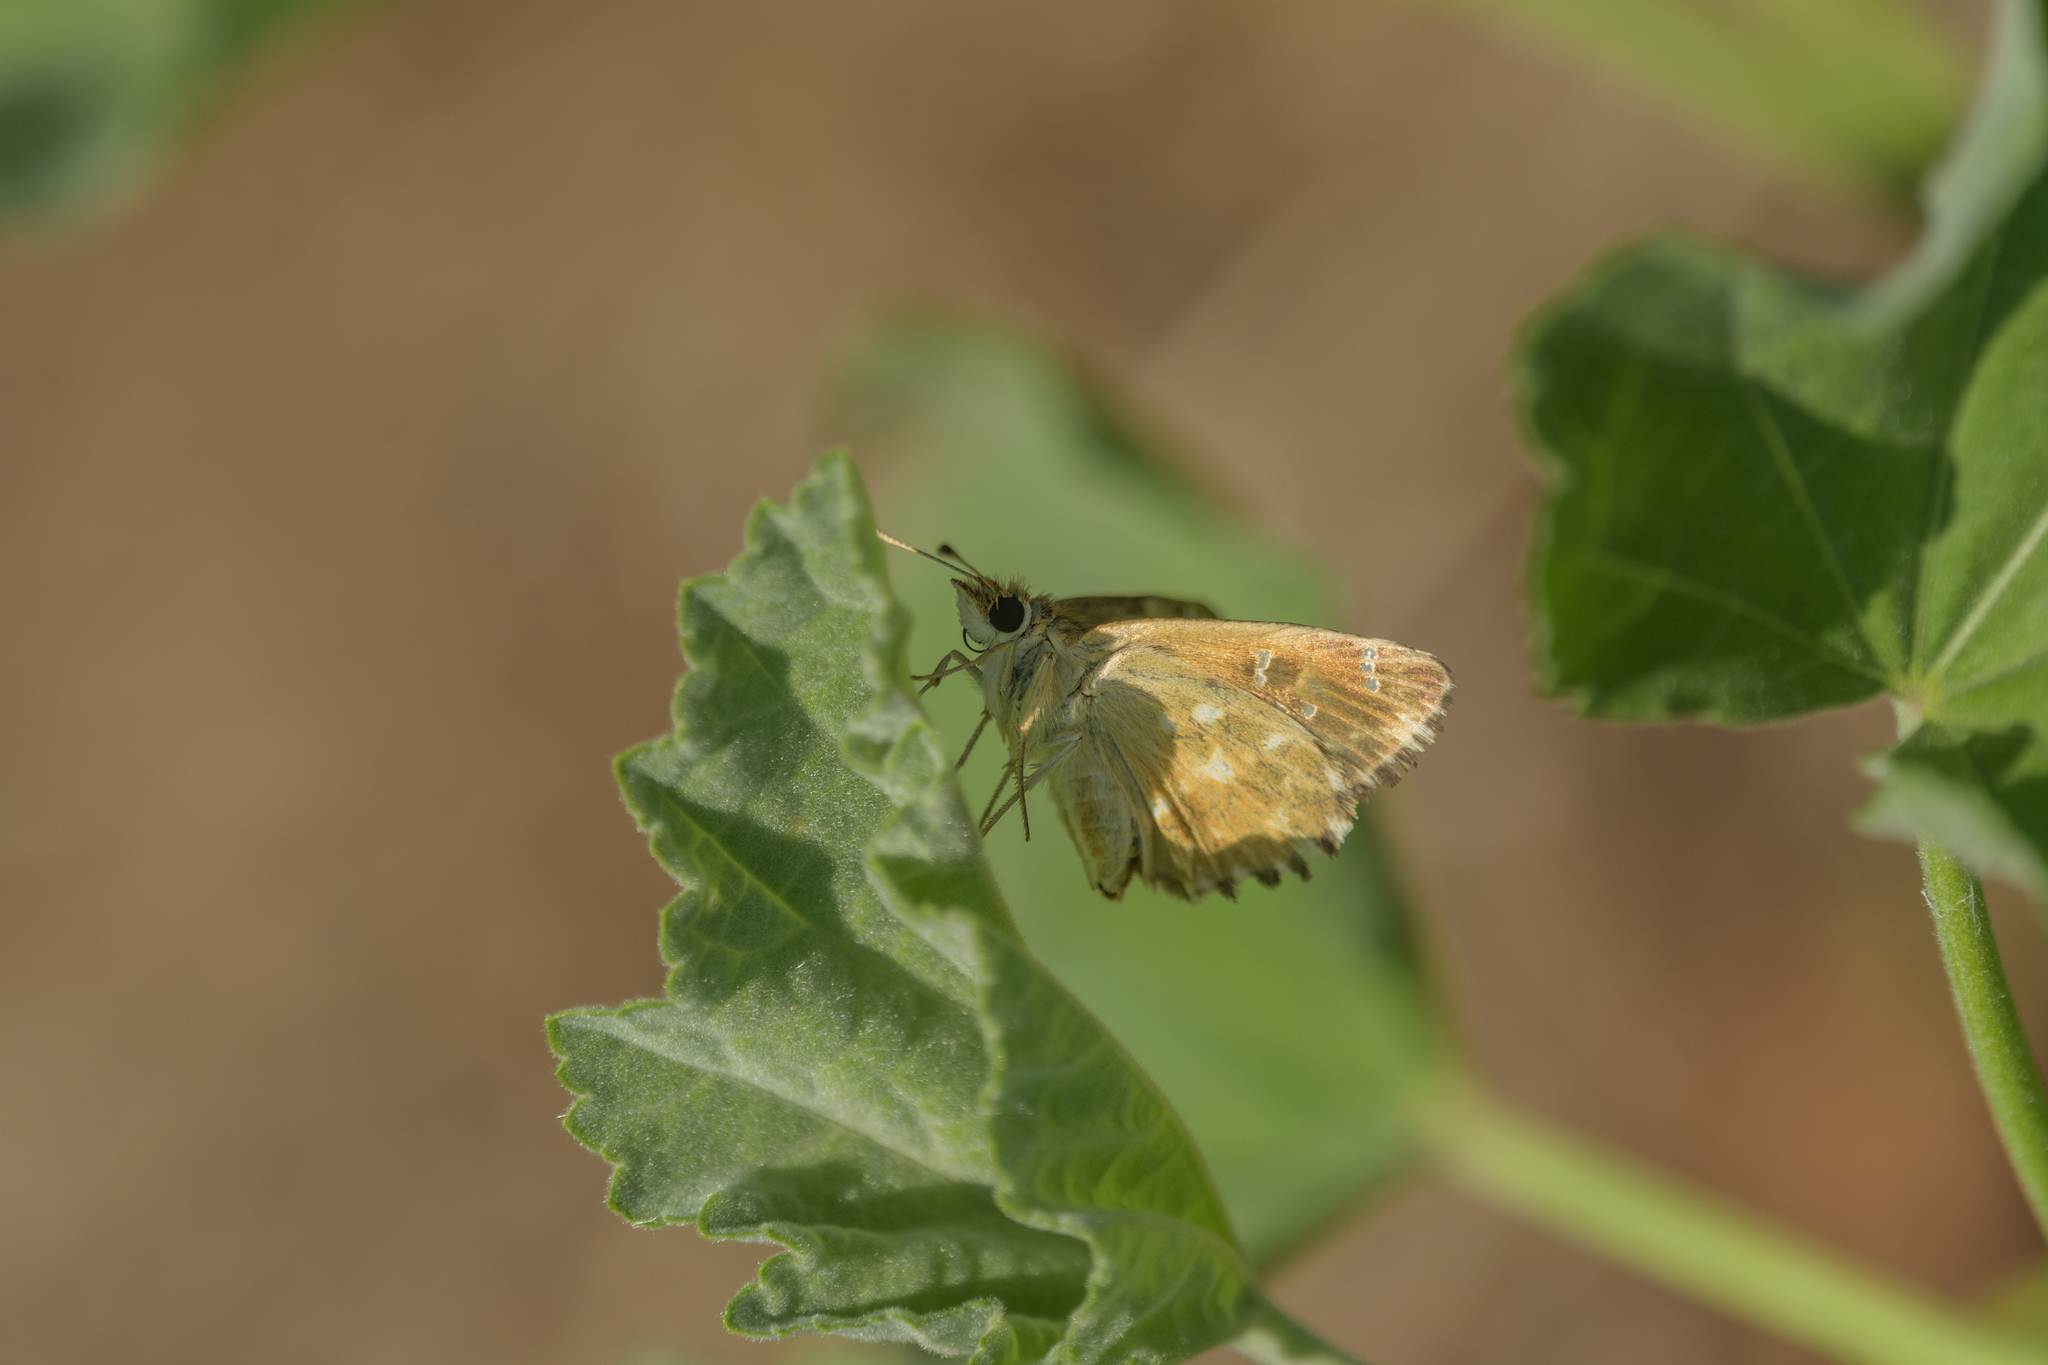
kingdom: Animalia
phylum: Arthropoda
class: Insecta
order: Lepidoptera
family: Hesperiidae
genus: Carcharodus
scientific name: Carcharodus alceae
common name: Mallow skipper
